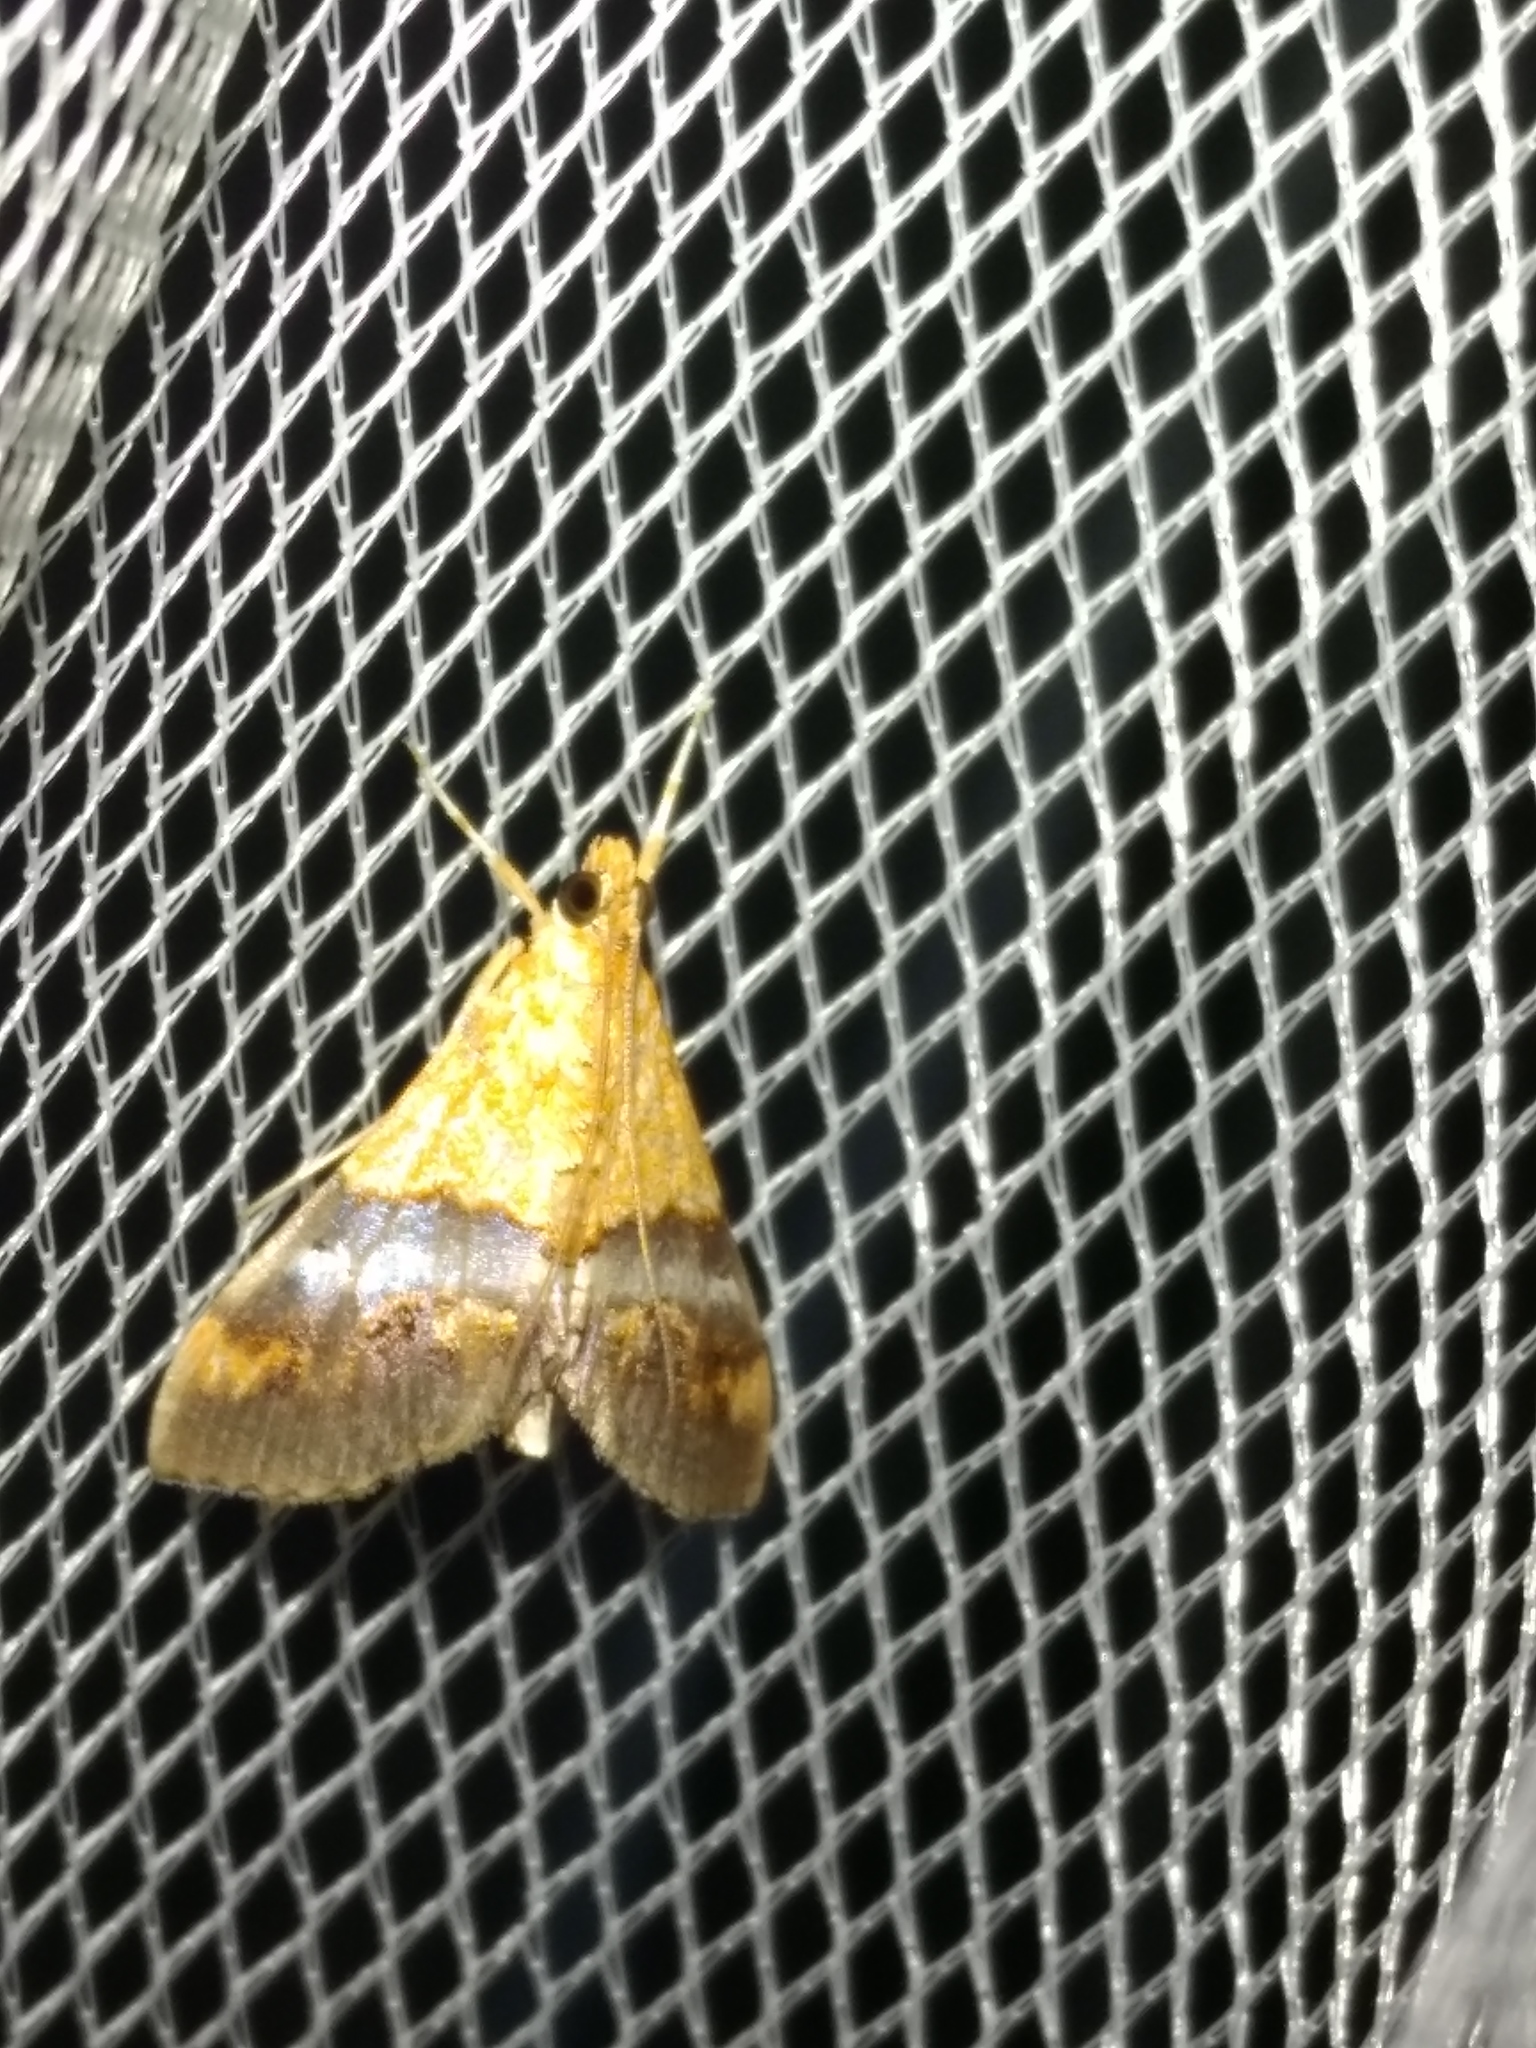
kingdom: Animalia
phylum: Arthropoda
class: Insecta
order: Lepidoptera
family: Crambidae
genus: Agrotera
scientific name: Agrotera Tetracona amathealis
